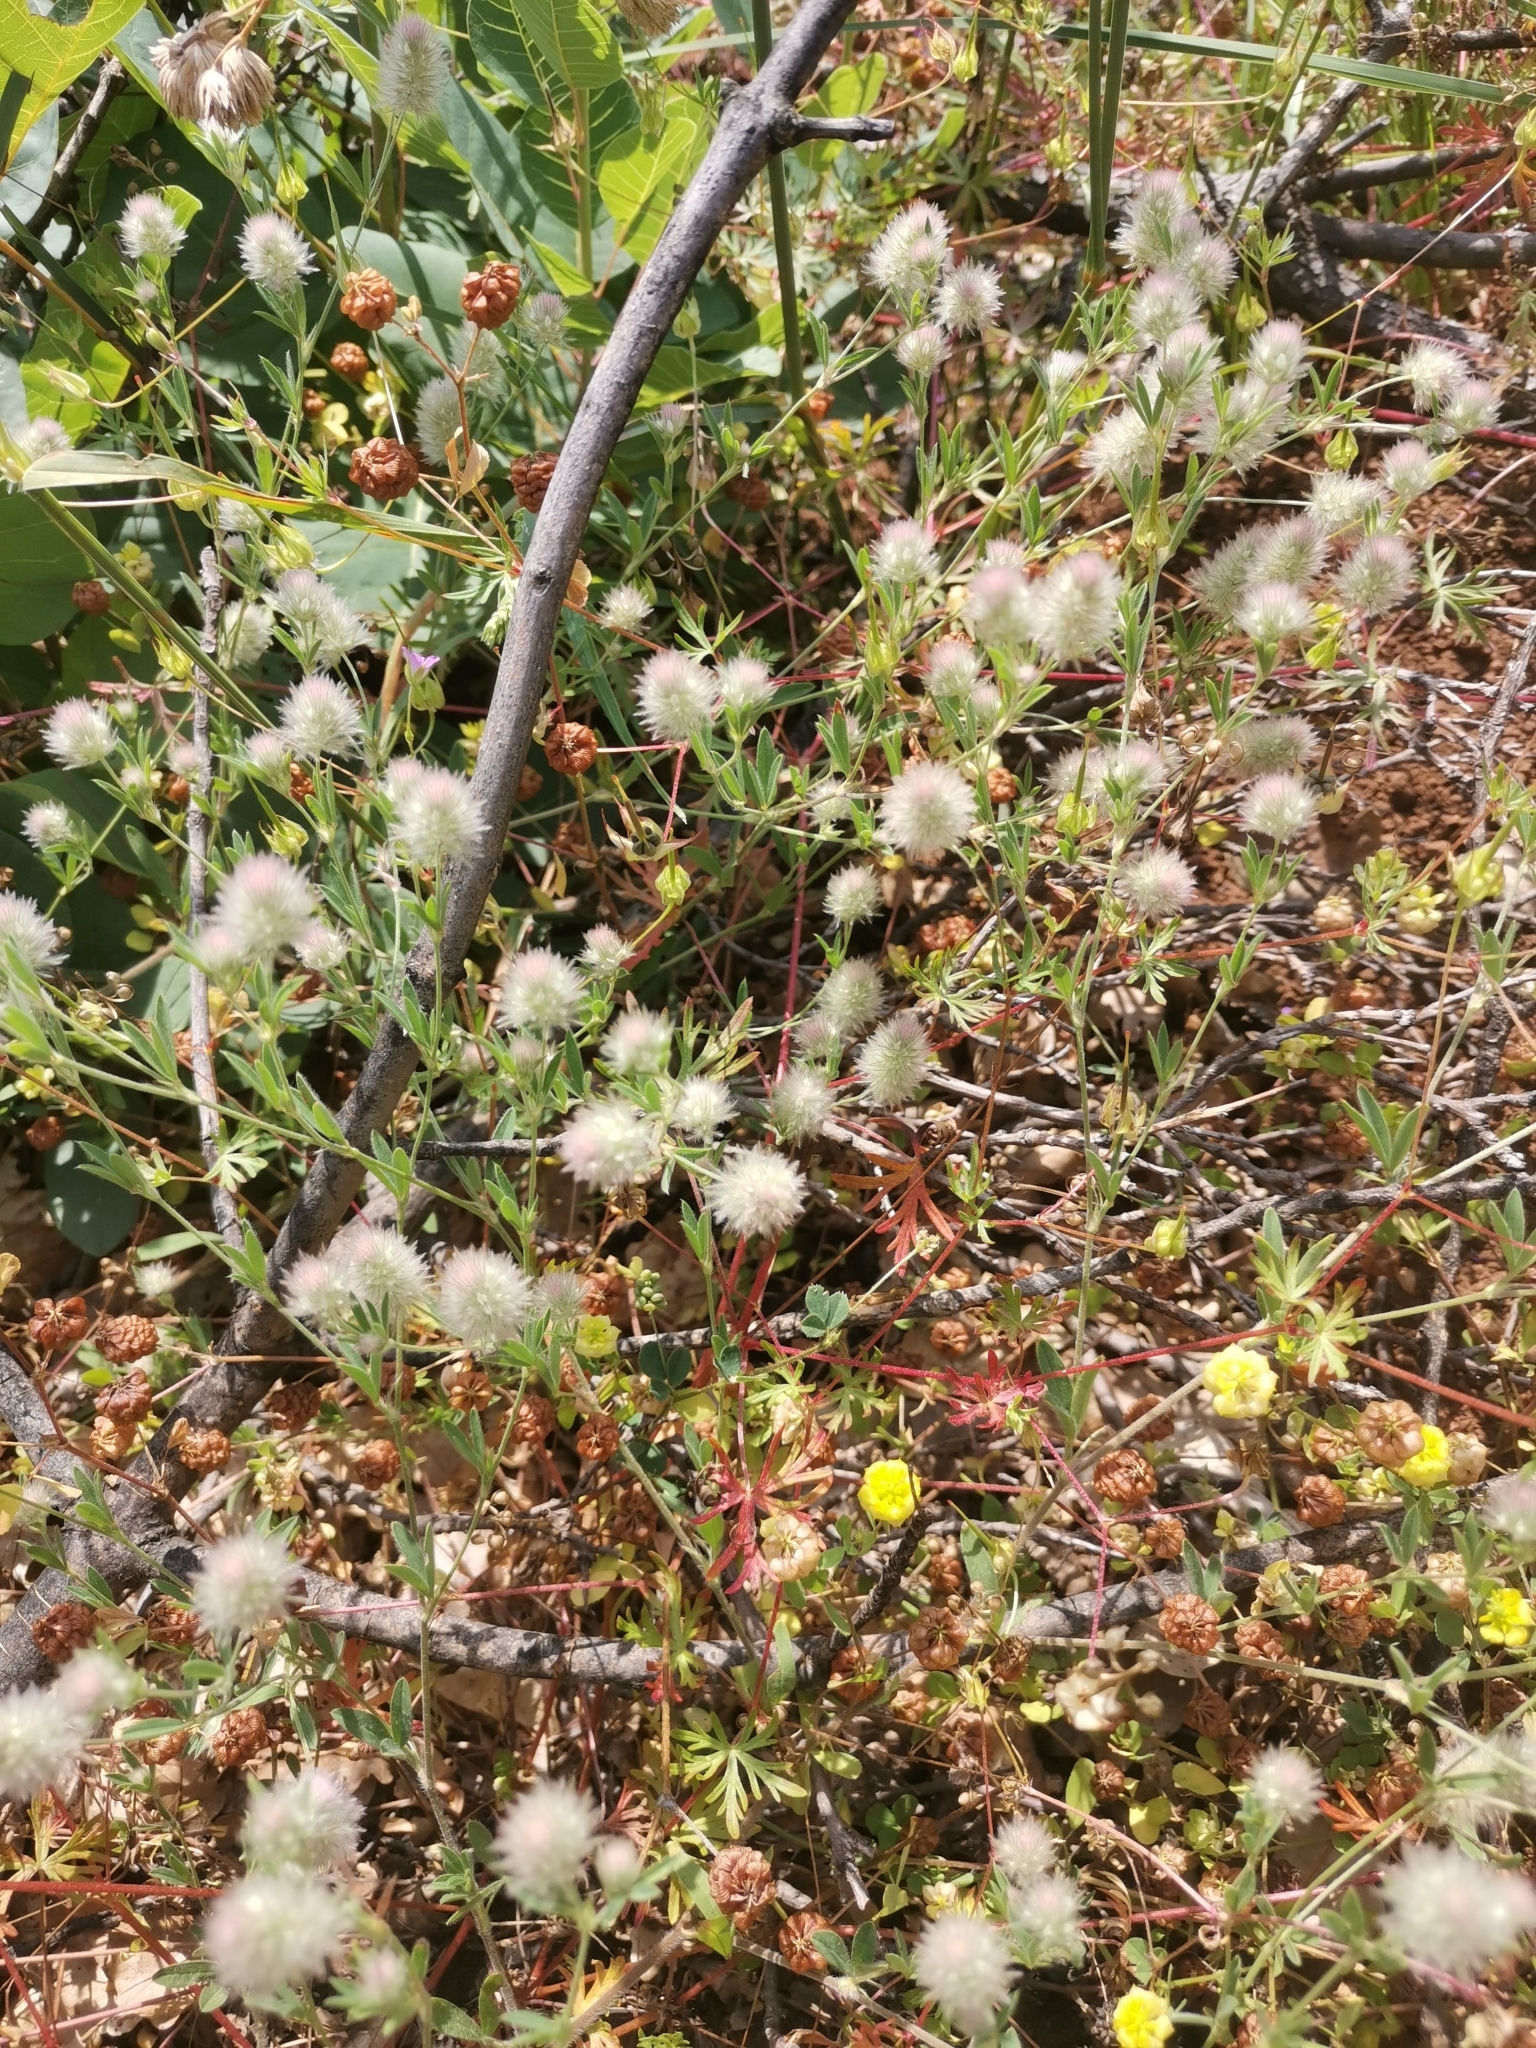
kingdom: Plantae
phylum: Tracheophyta
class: Magnoliopsida
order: Fabales
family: Fabaceae
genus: Trifolium
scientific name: Trifolium arvense
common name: Hare's-foot clover
